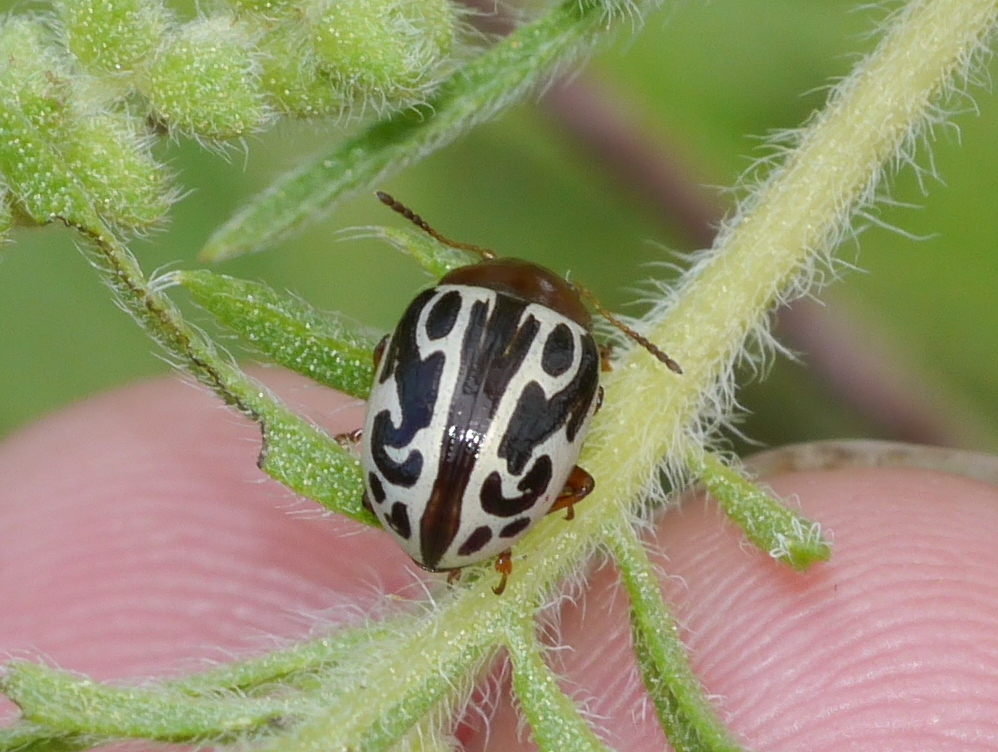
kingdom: Animalia
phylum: Arthropoda
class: Insecta
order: Coleoptera
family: Chrysomelidae
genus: Calligrapha
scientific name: Calligrapha
